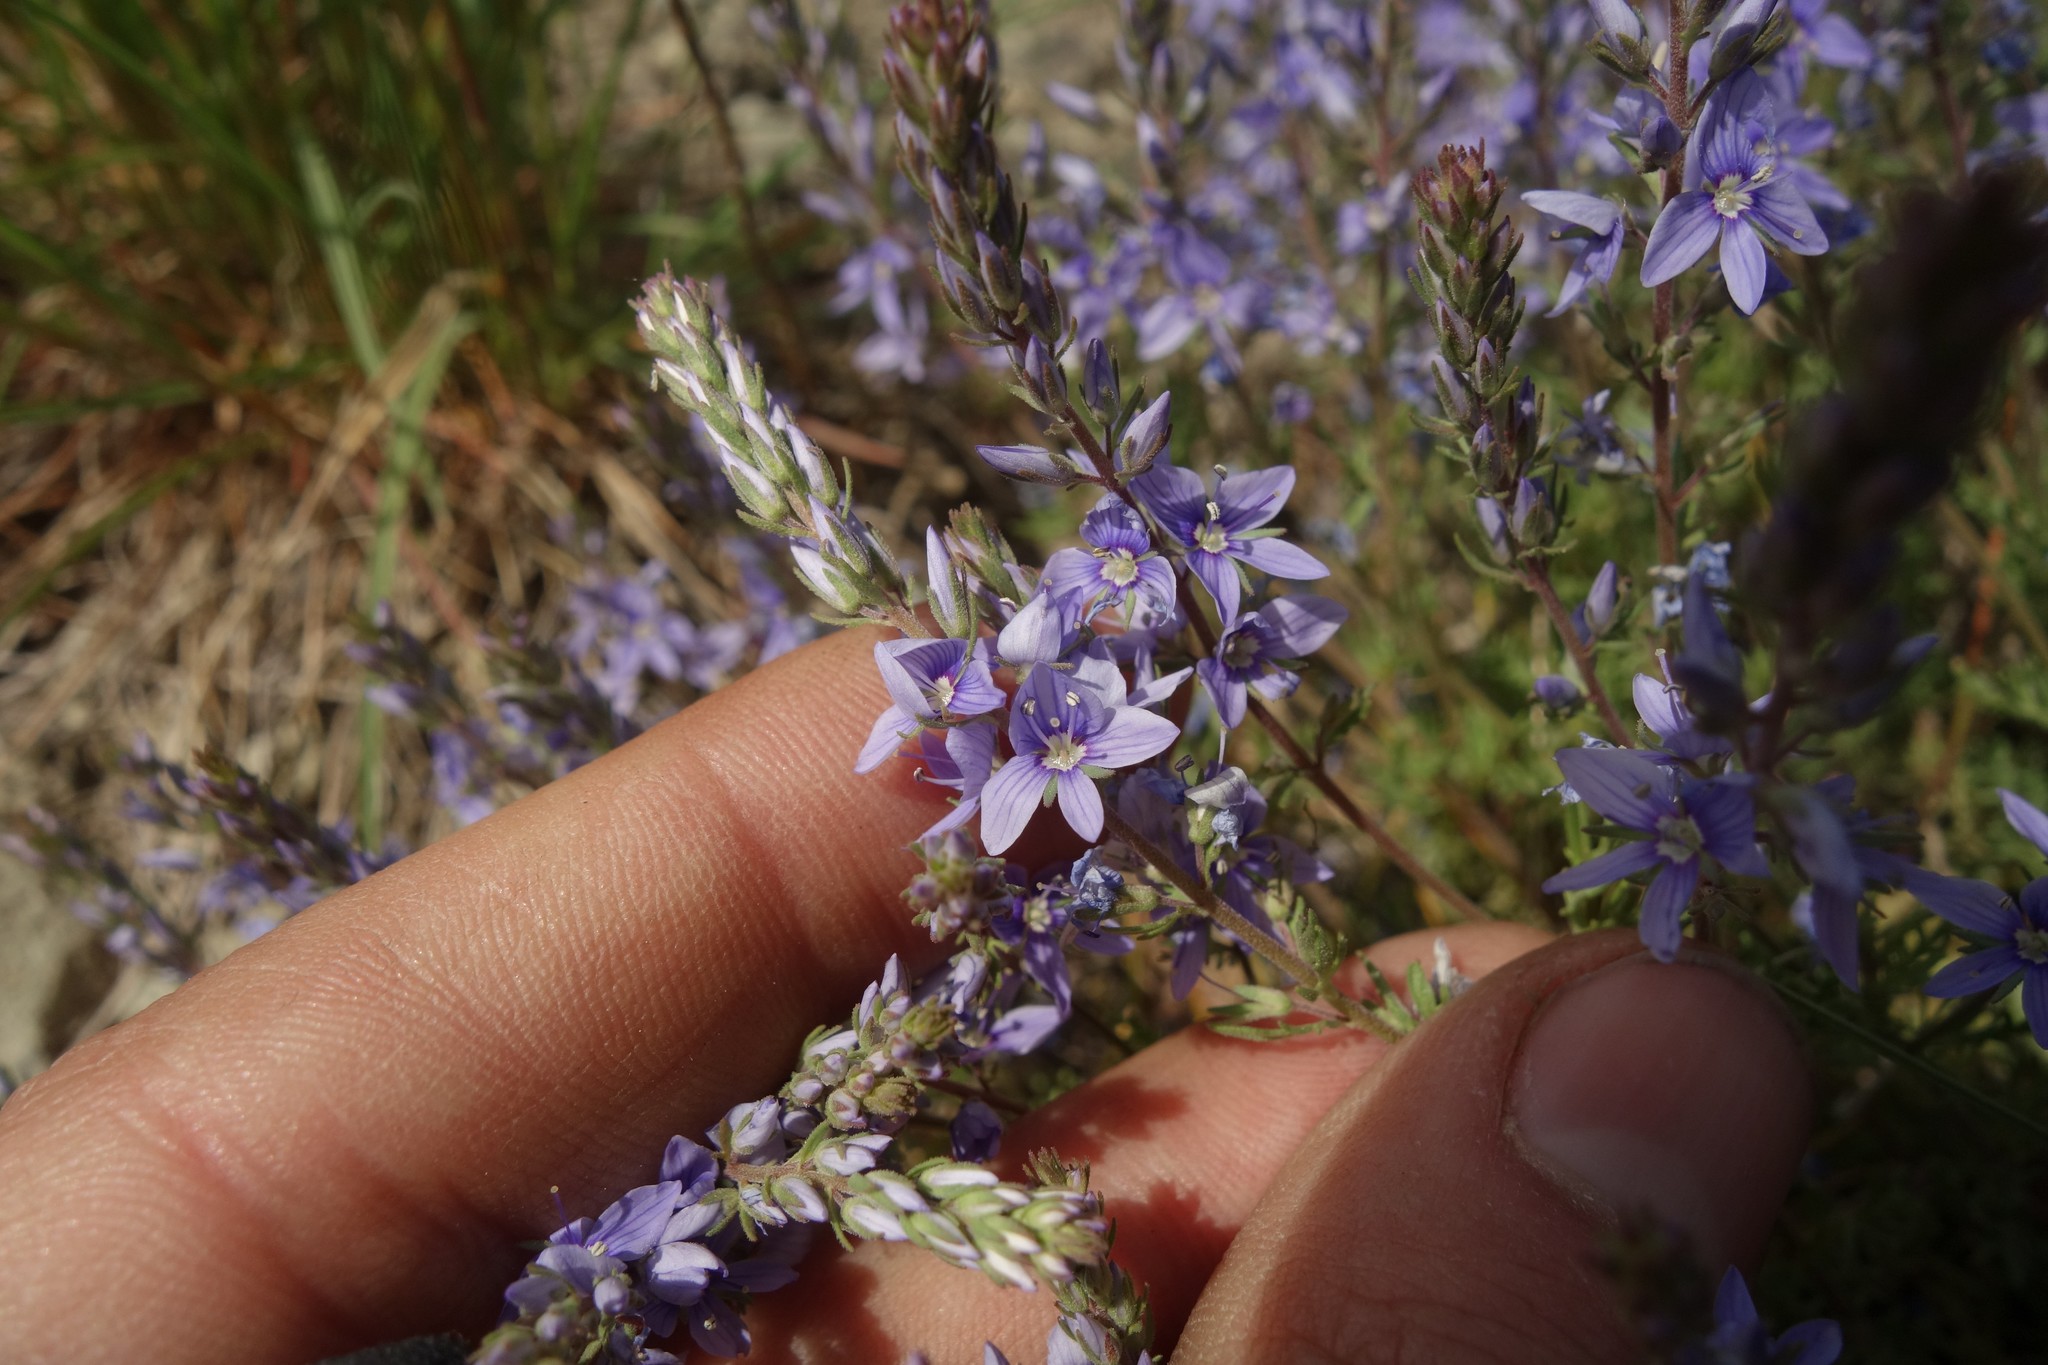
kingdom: Plantae
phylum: Tracheophyta
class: Magnoliopsida
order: Lamiales
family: Plantaginaceae
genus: Veronica
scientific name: Veronica multifida
